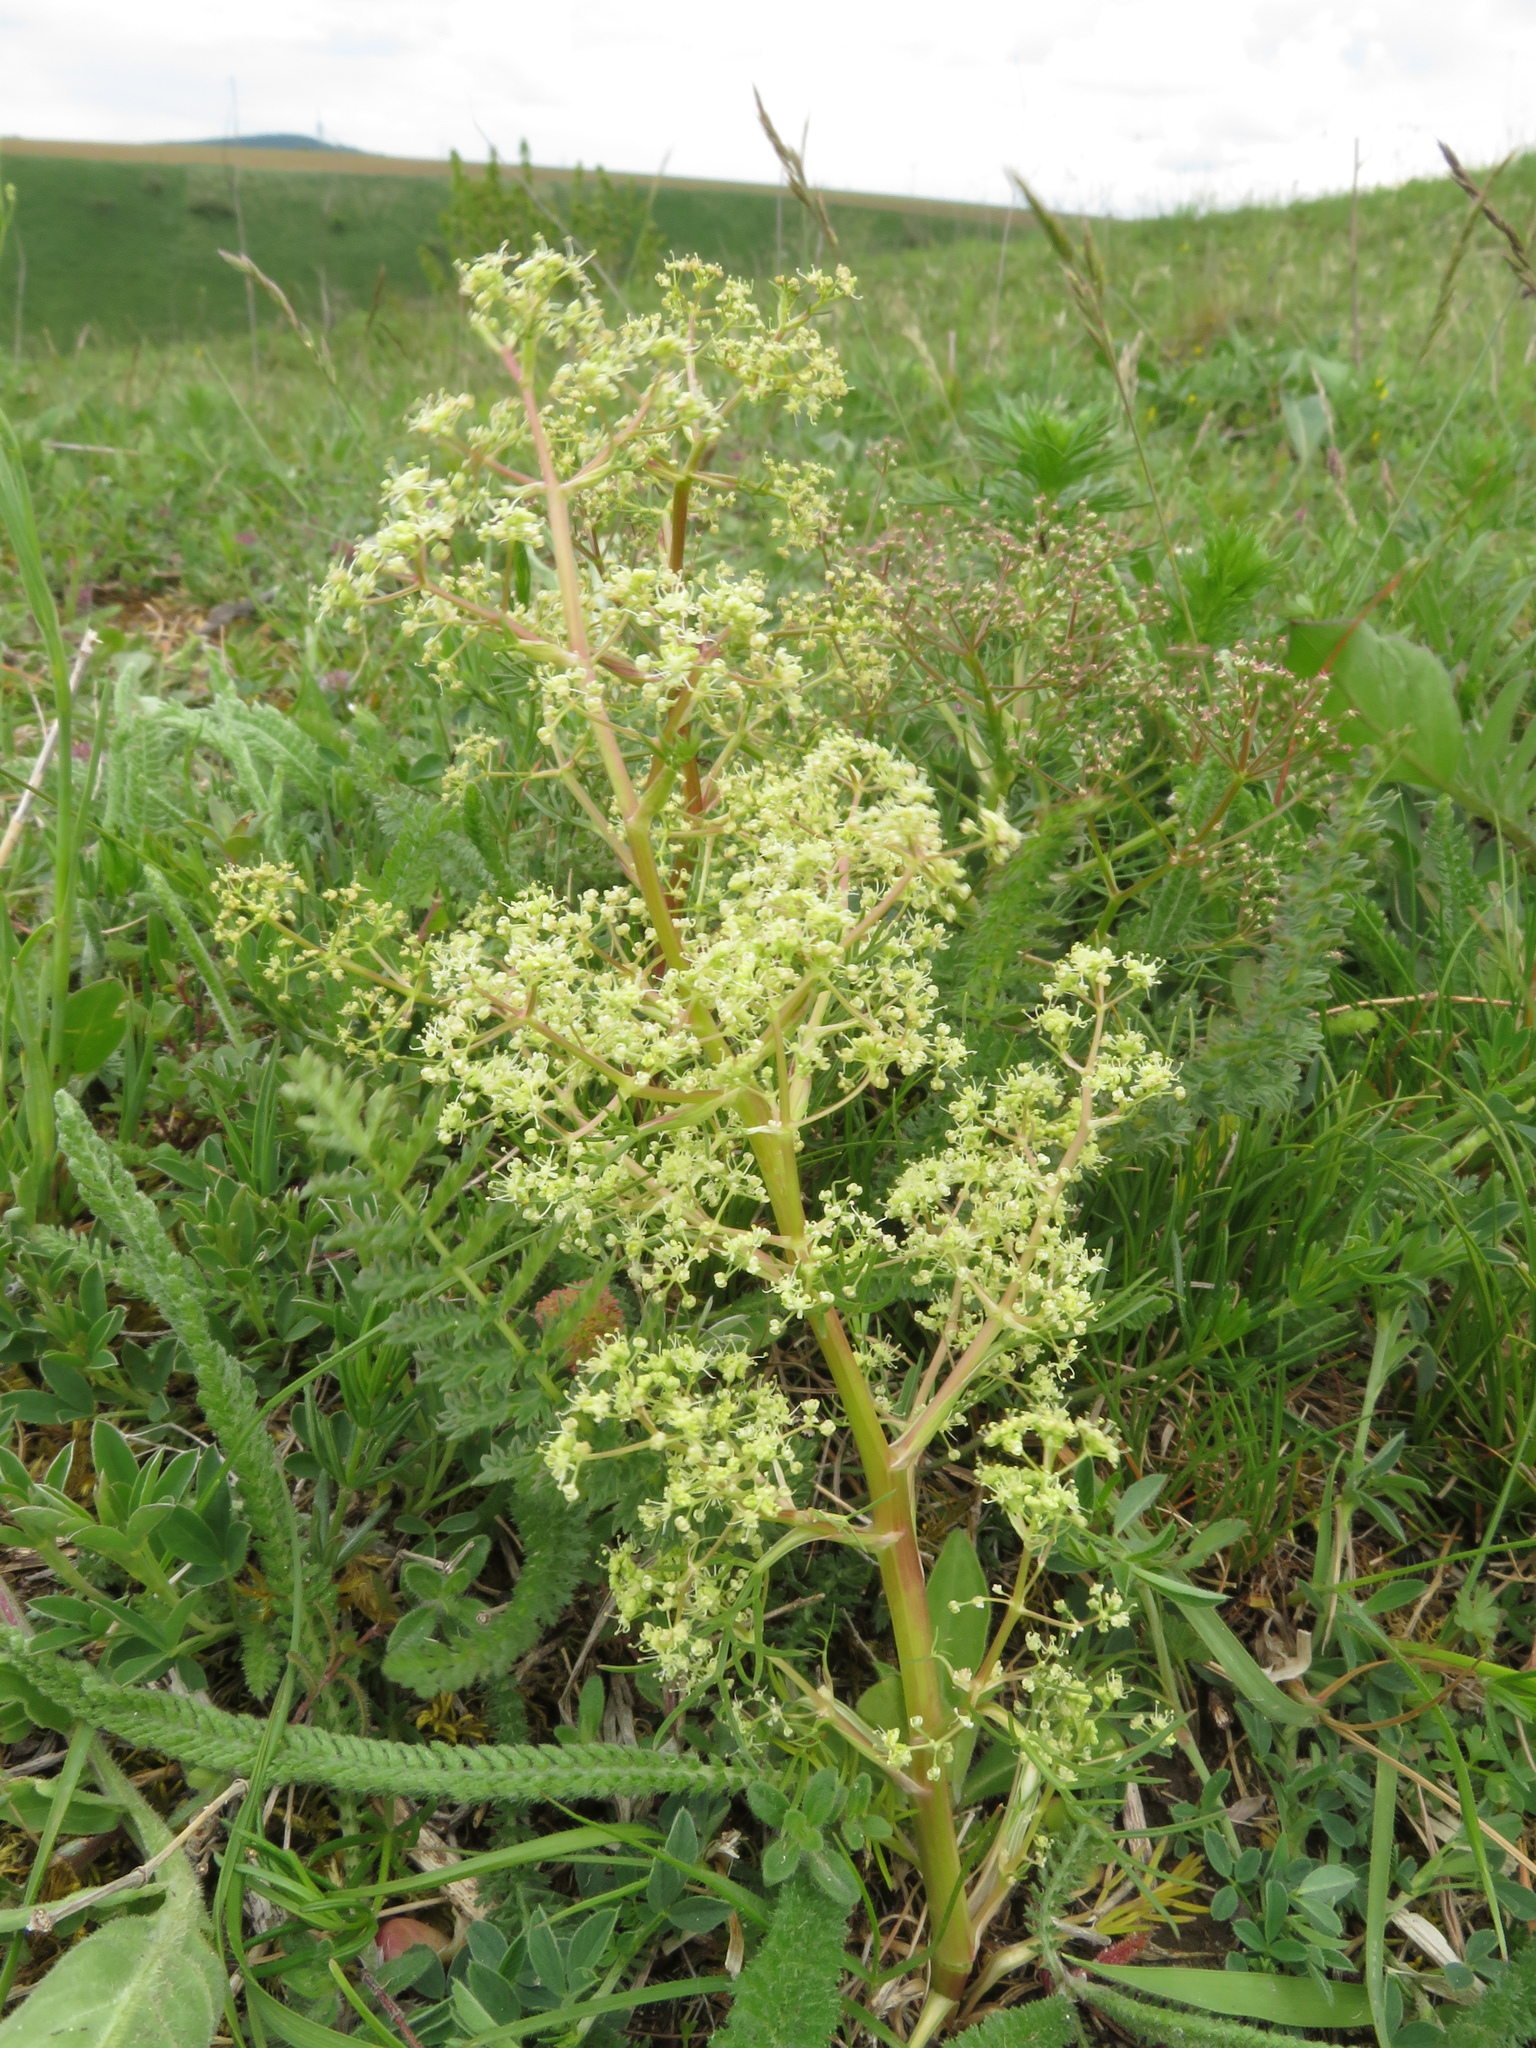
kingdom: Plantae
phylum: Tracheophyta
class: Magnoliopsida
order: Apiales
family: Apiaceae
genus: Trinia
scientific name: Trinia glauca
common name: Honewort
